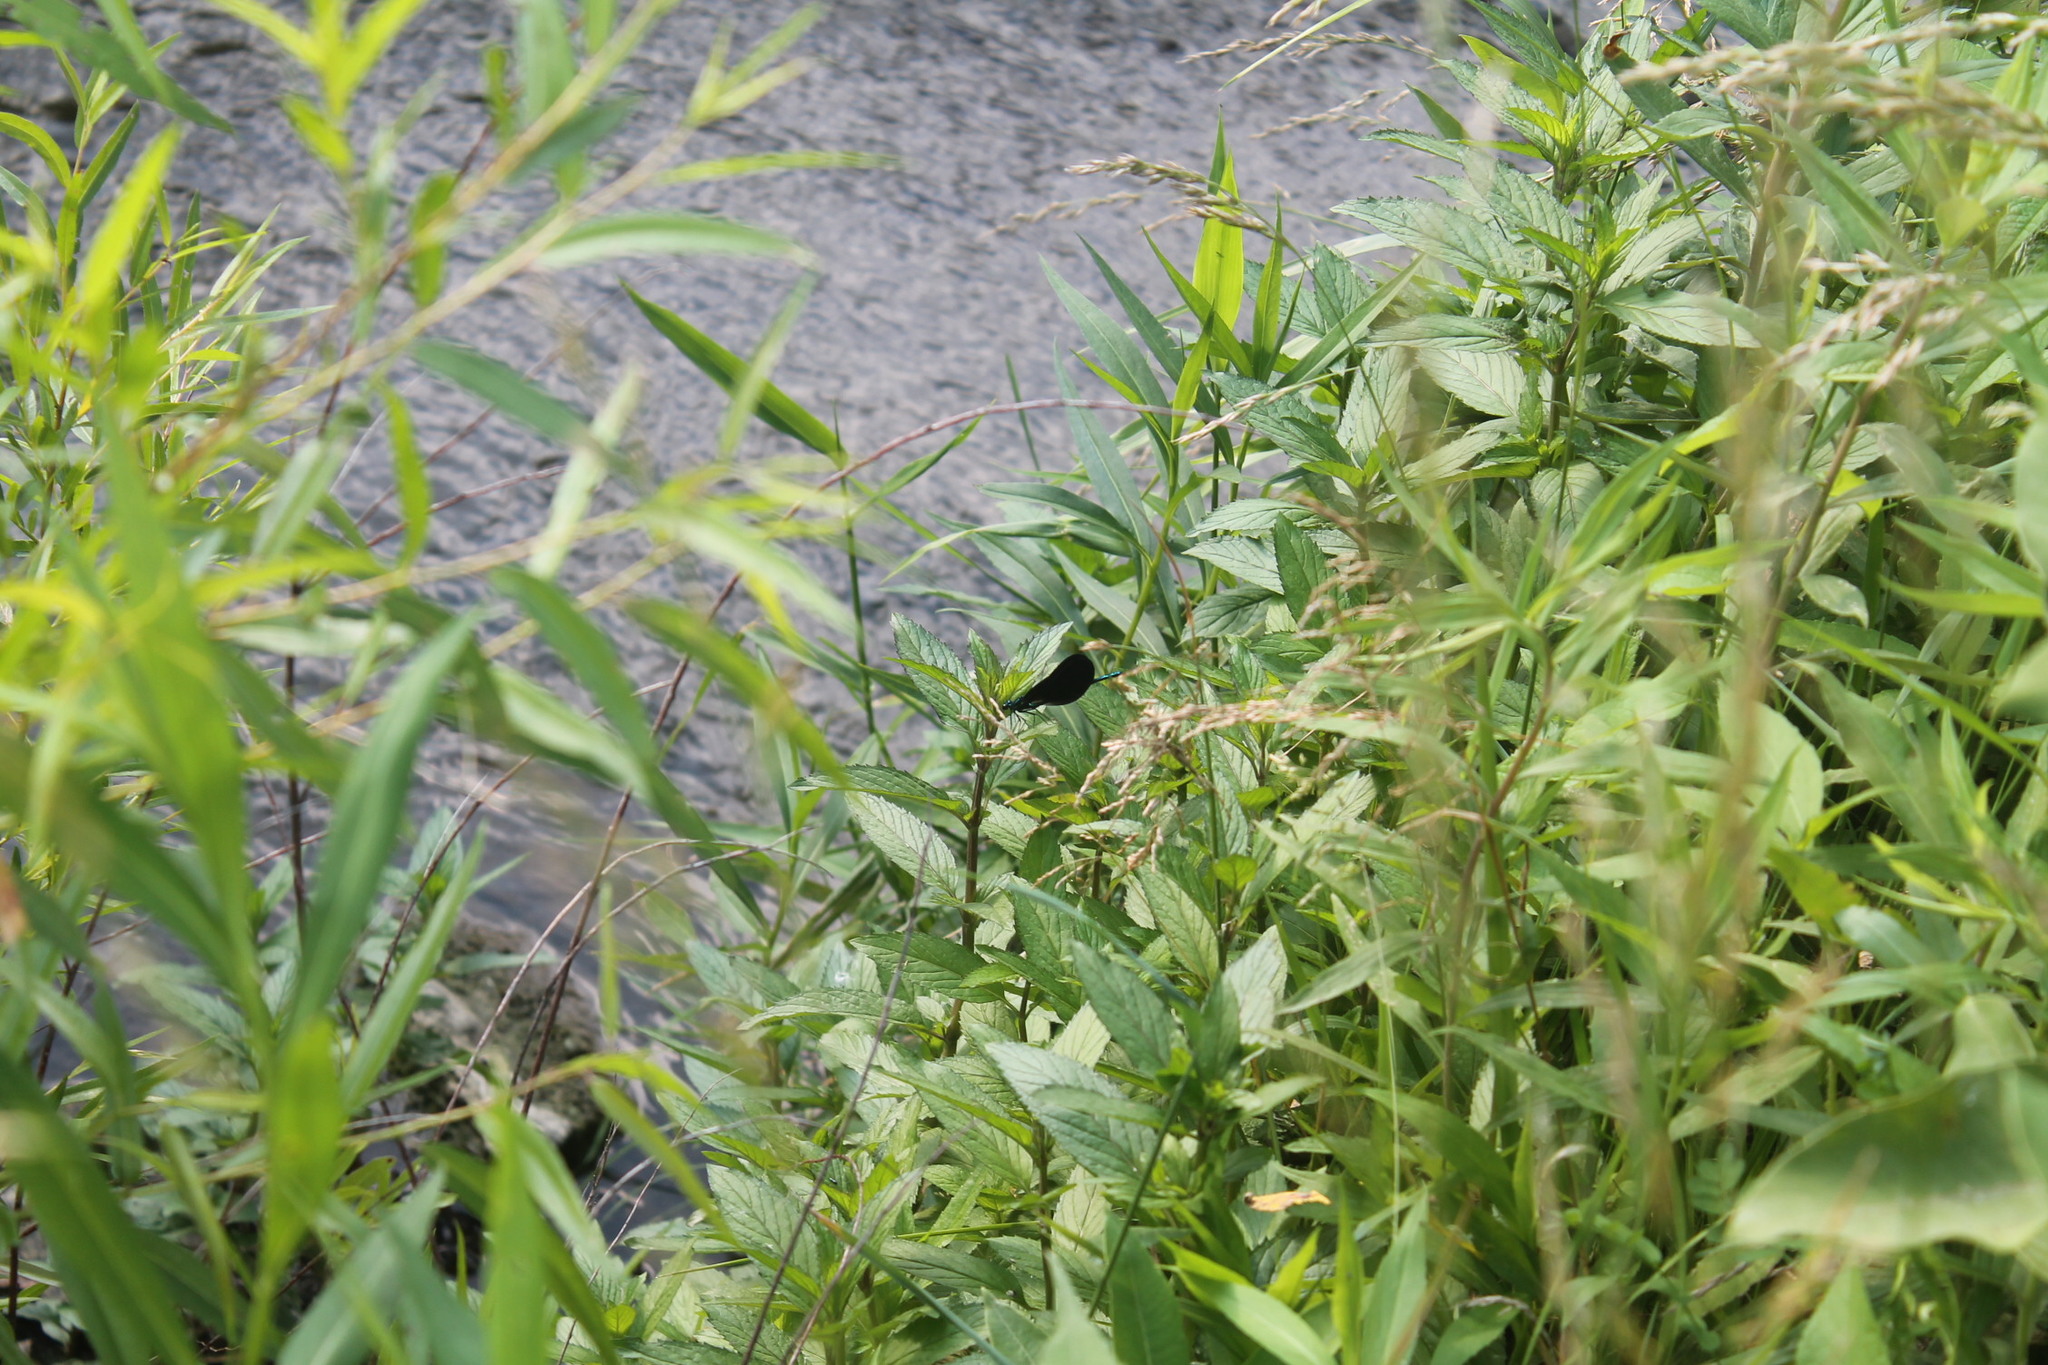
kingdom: Animalia
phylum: Arthropoda
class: Insecta
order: Odonata
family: Calopterygidae
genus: Calopteryx
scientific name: Calopteryx maculata
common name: Ebony jewelwing
